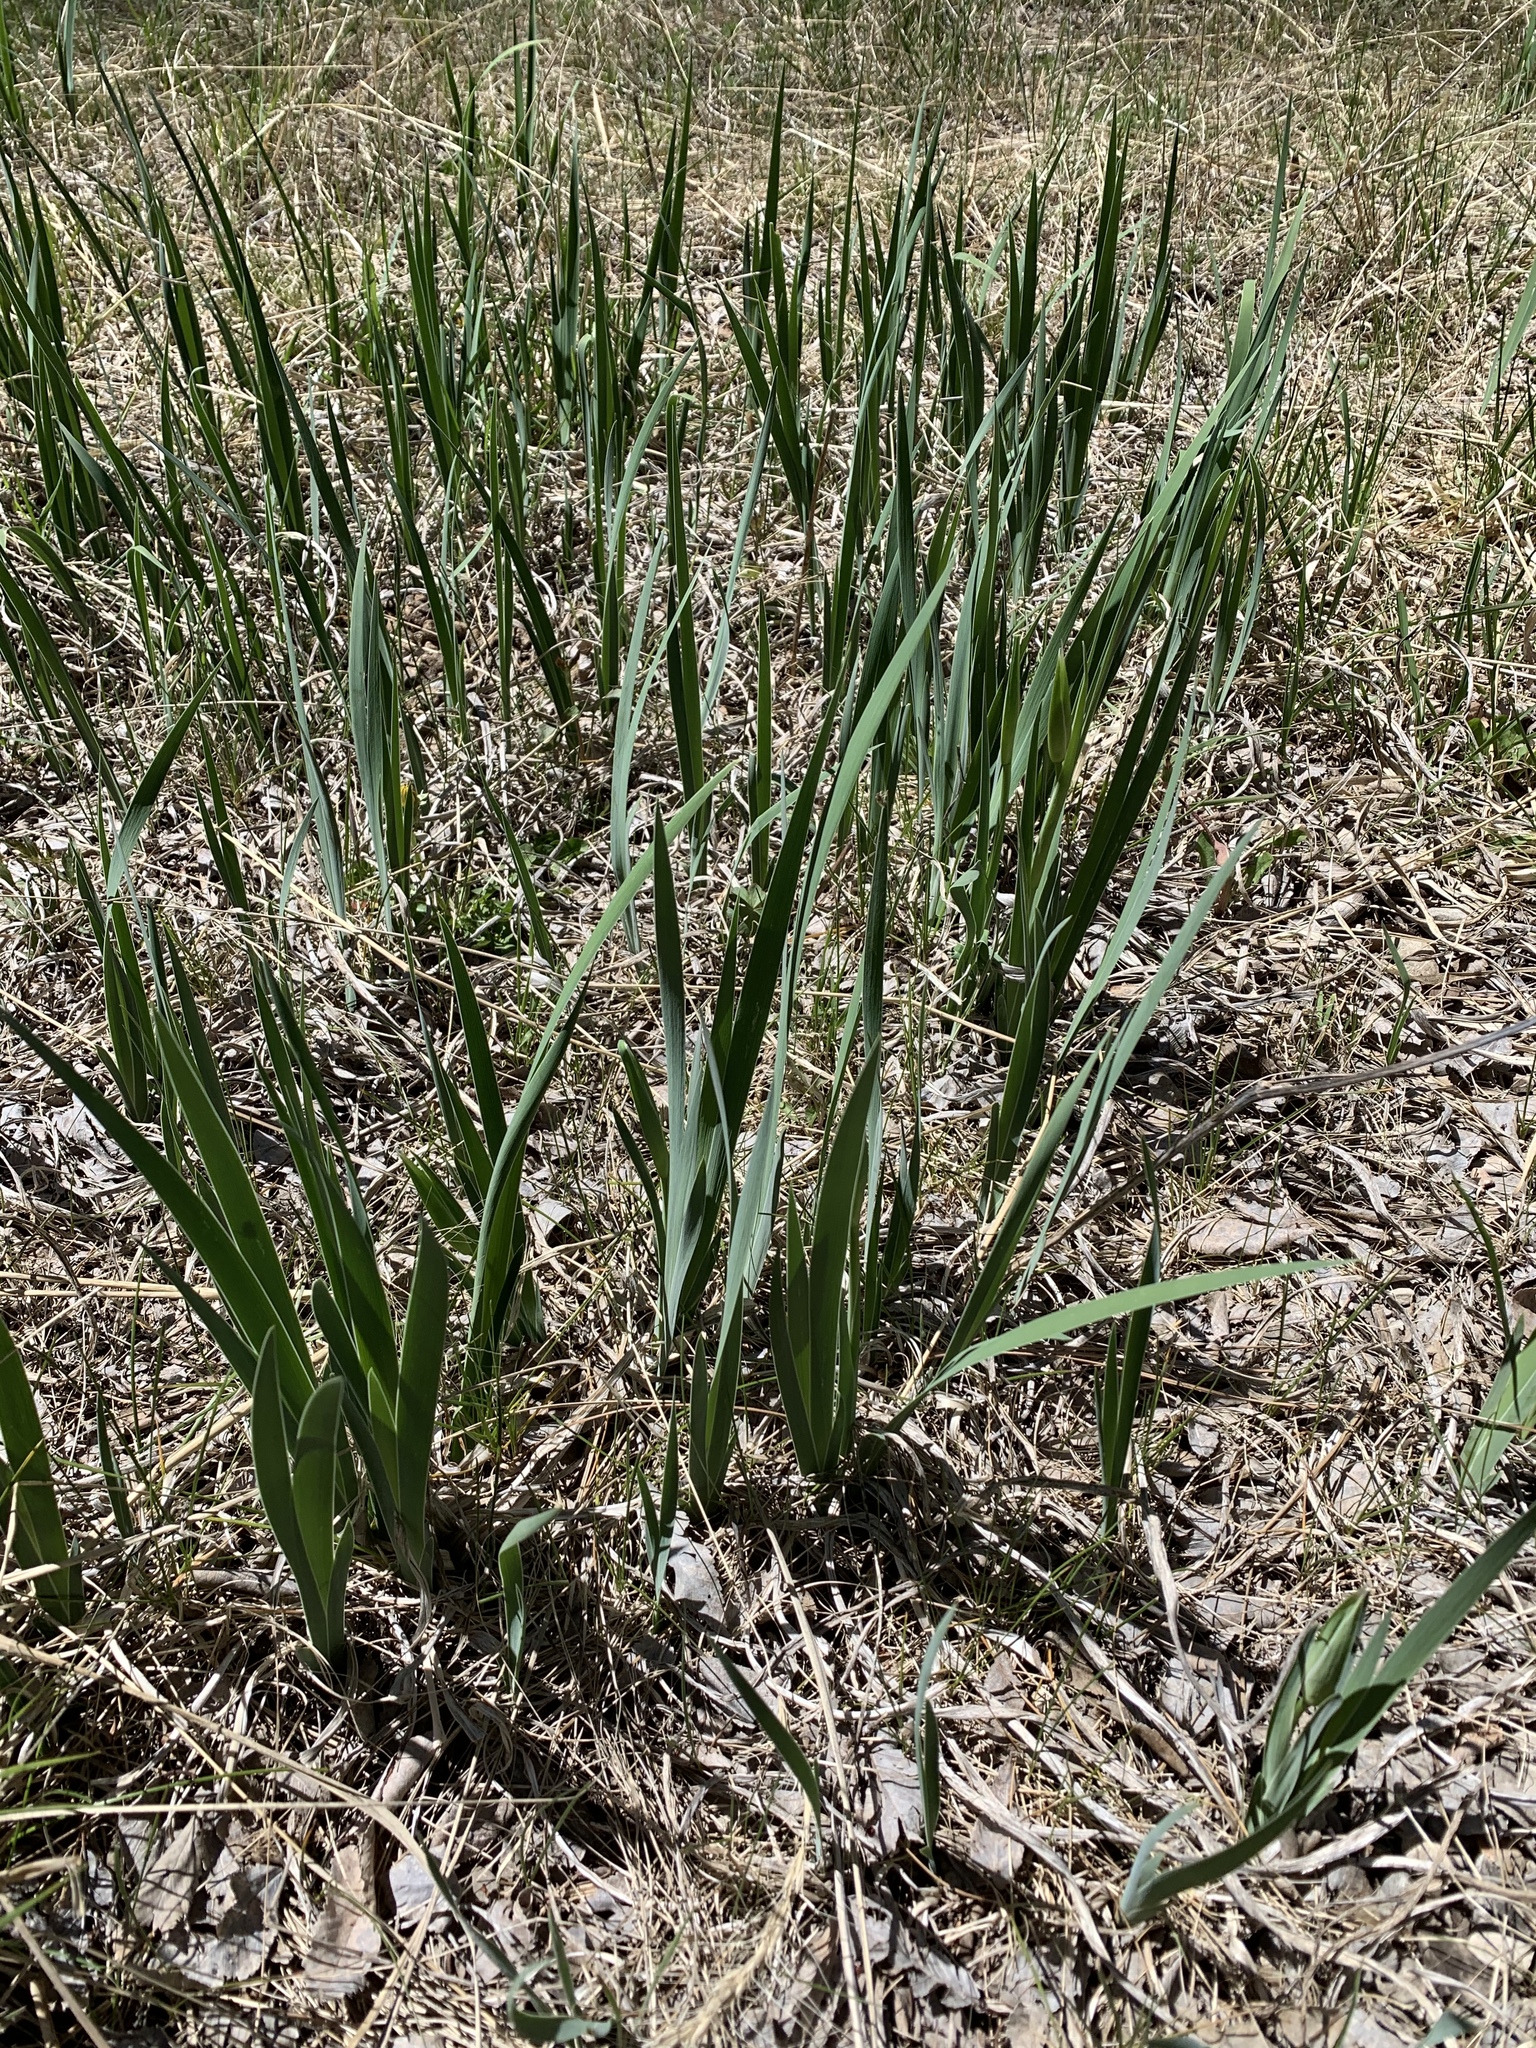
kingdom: Plantae
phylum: Tracheophyta
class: Liliopsida
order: Asparagales
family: Iridaceae
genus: Iris
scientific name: Iris missouriensis
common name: Rocky mountain iris
